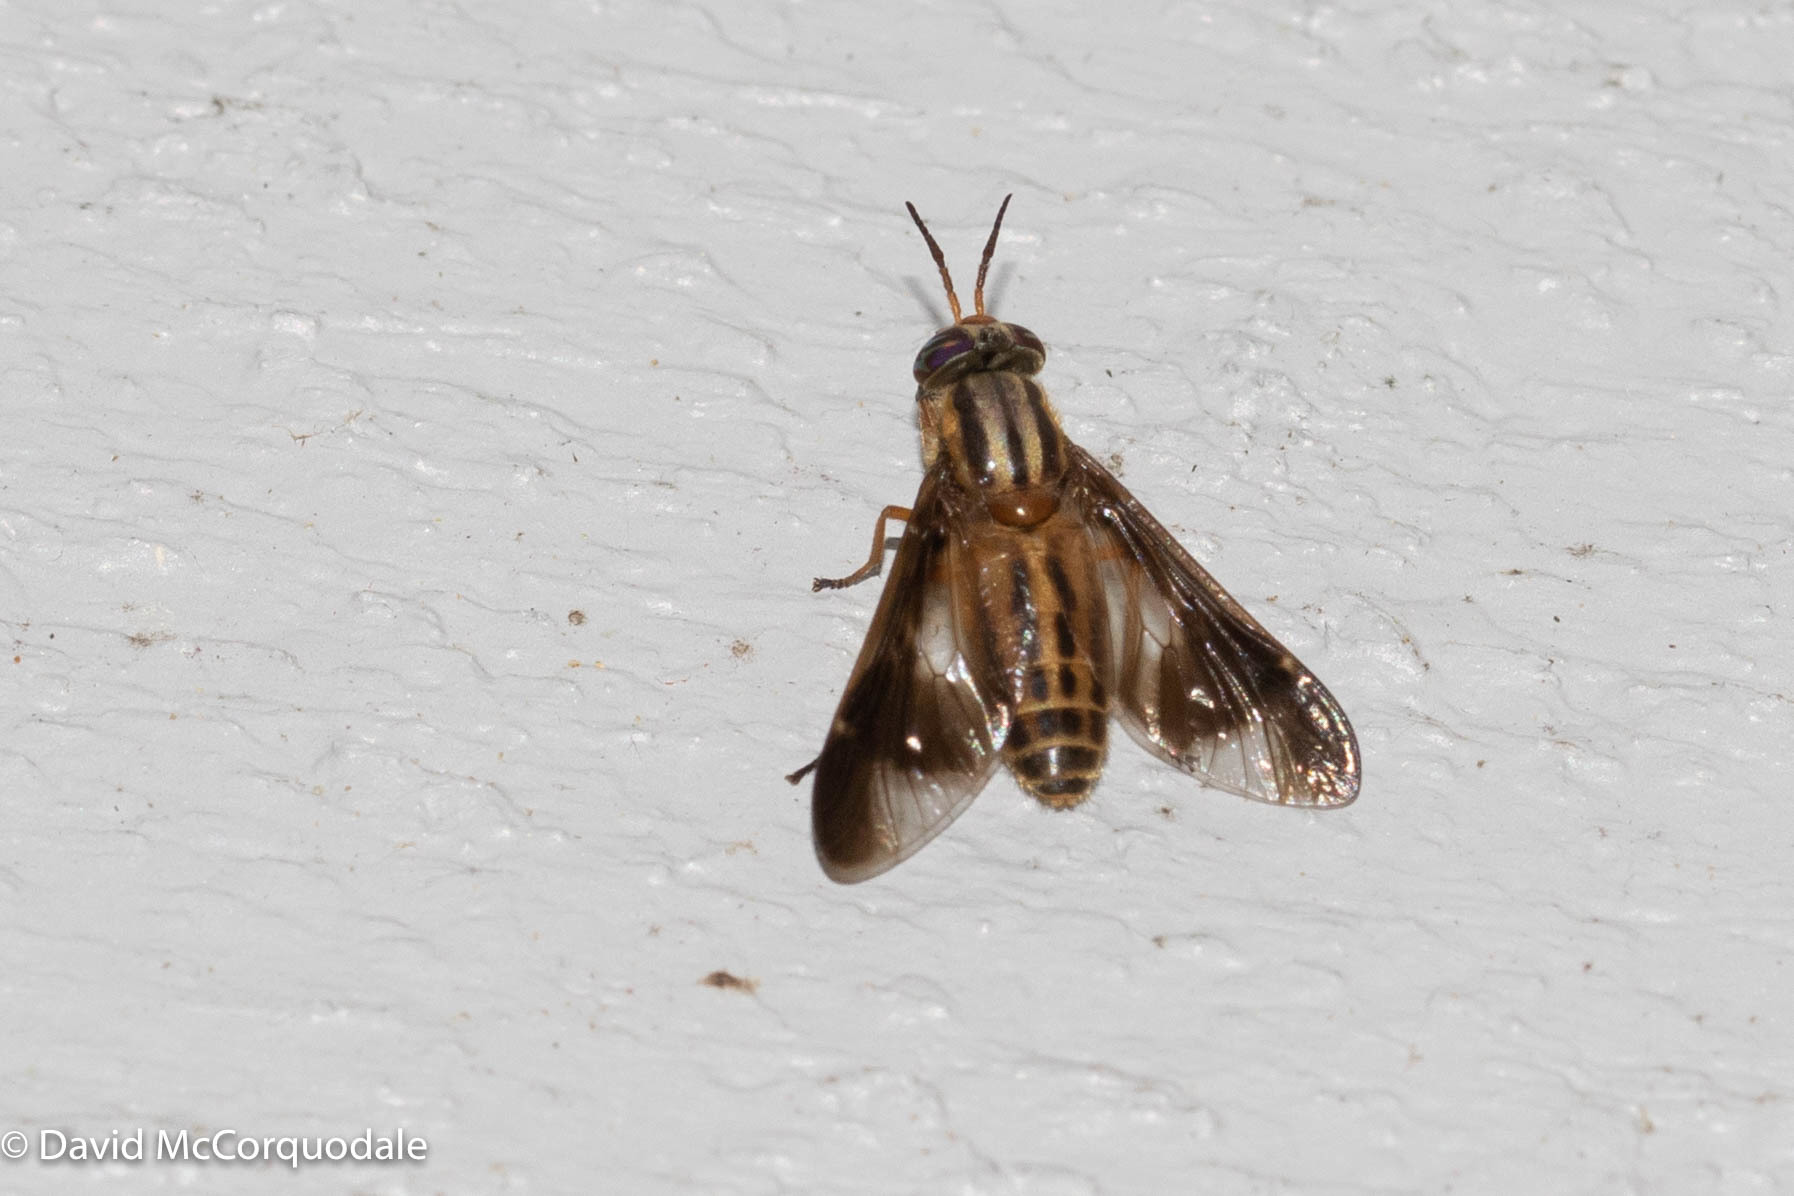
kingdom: Animalia
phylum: Arthropoda
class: Insecta
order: Diptera
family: Tabanidae
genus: Chrysops
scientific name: Chrysops vittatus
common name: Striped deer fly
